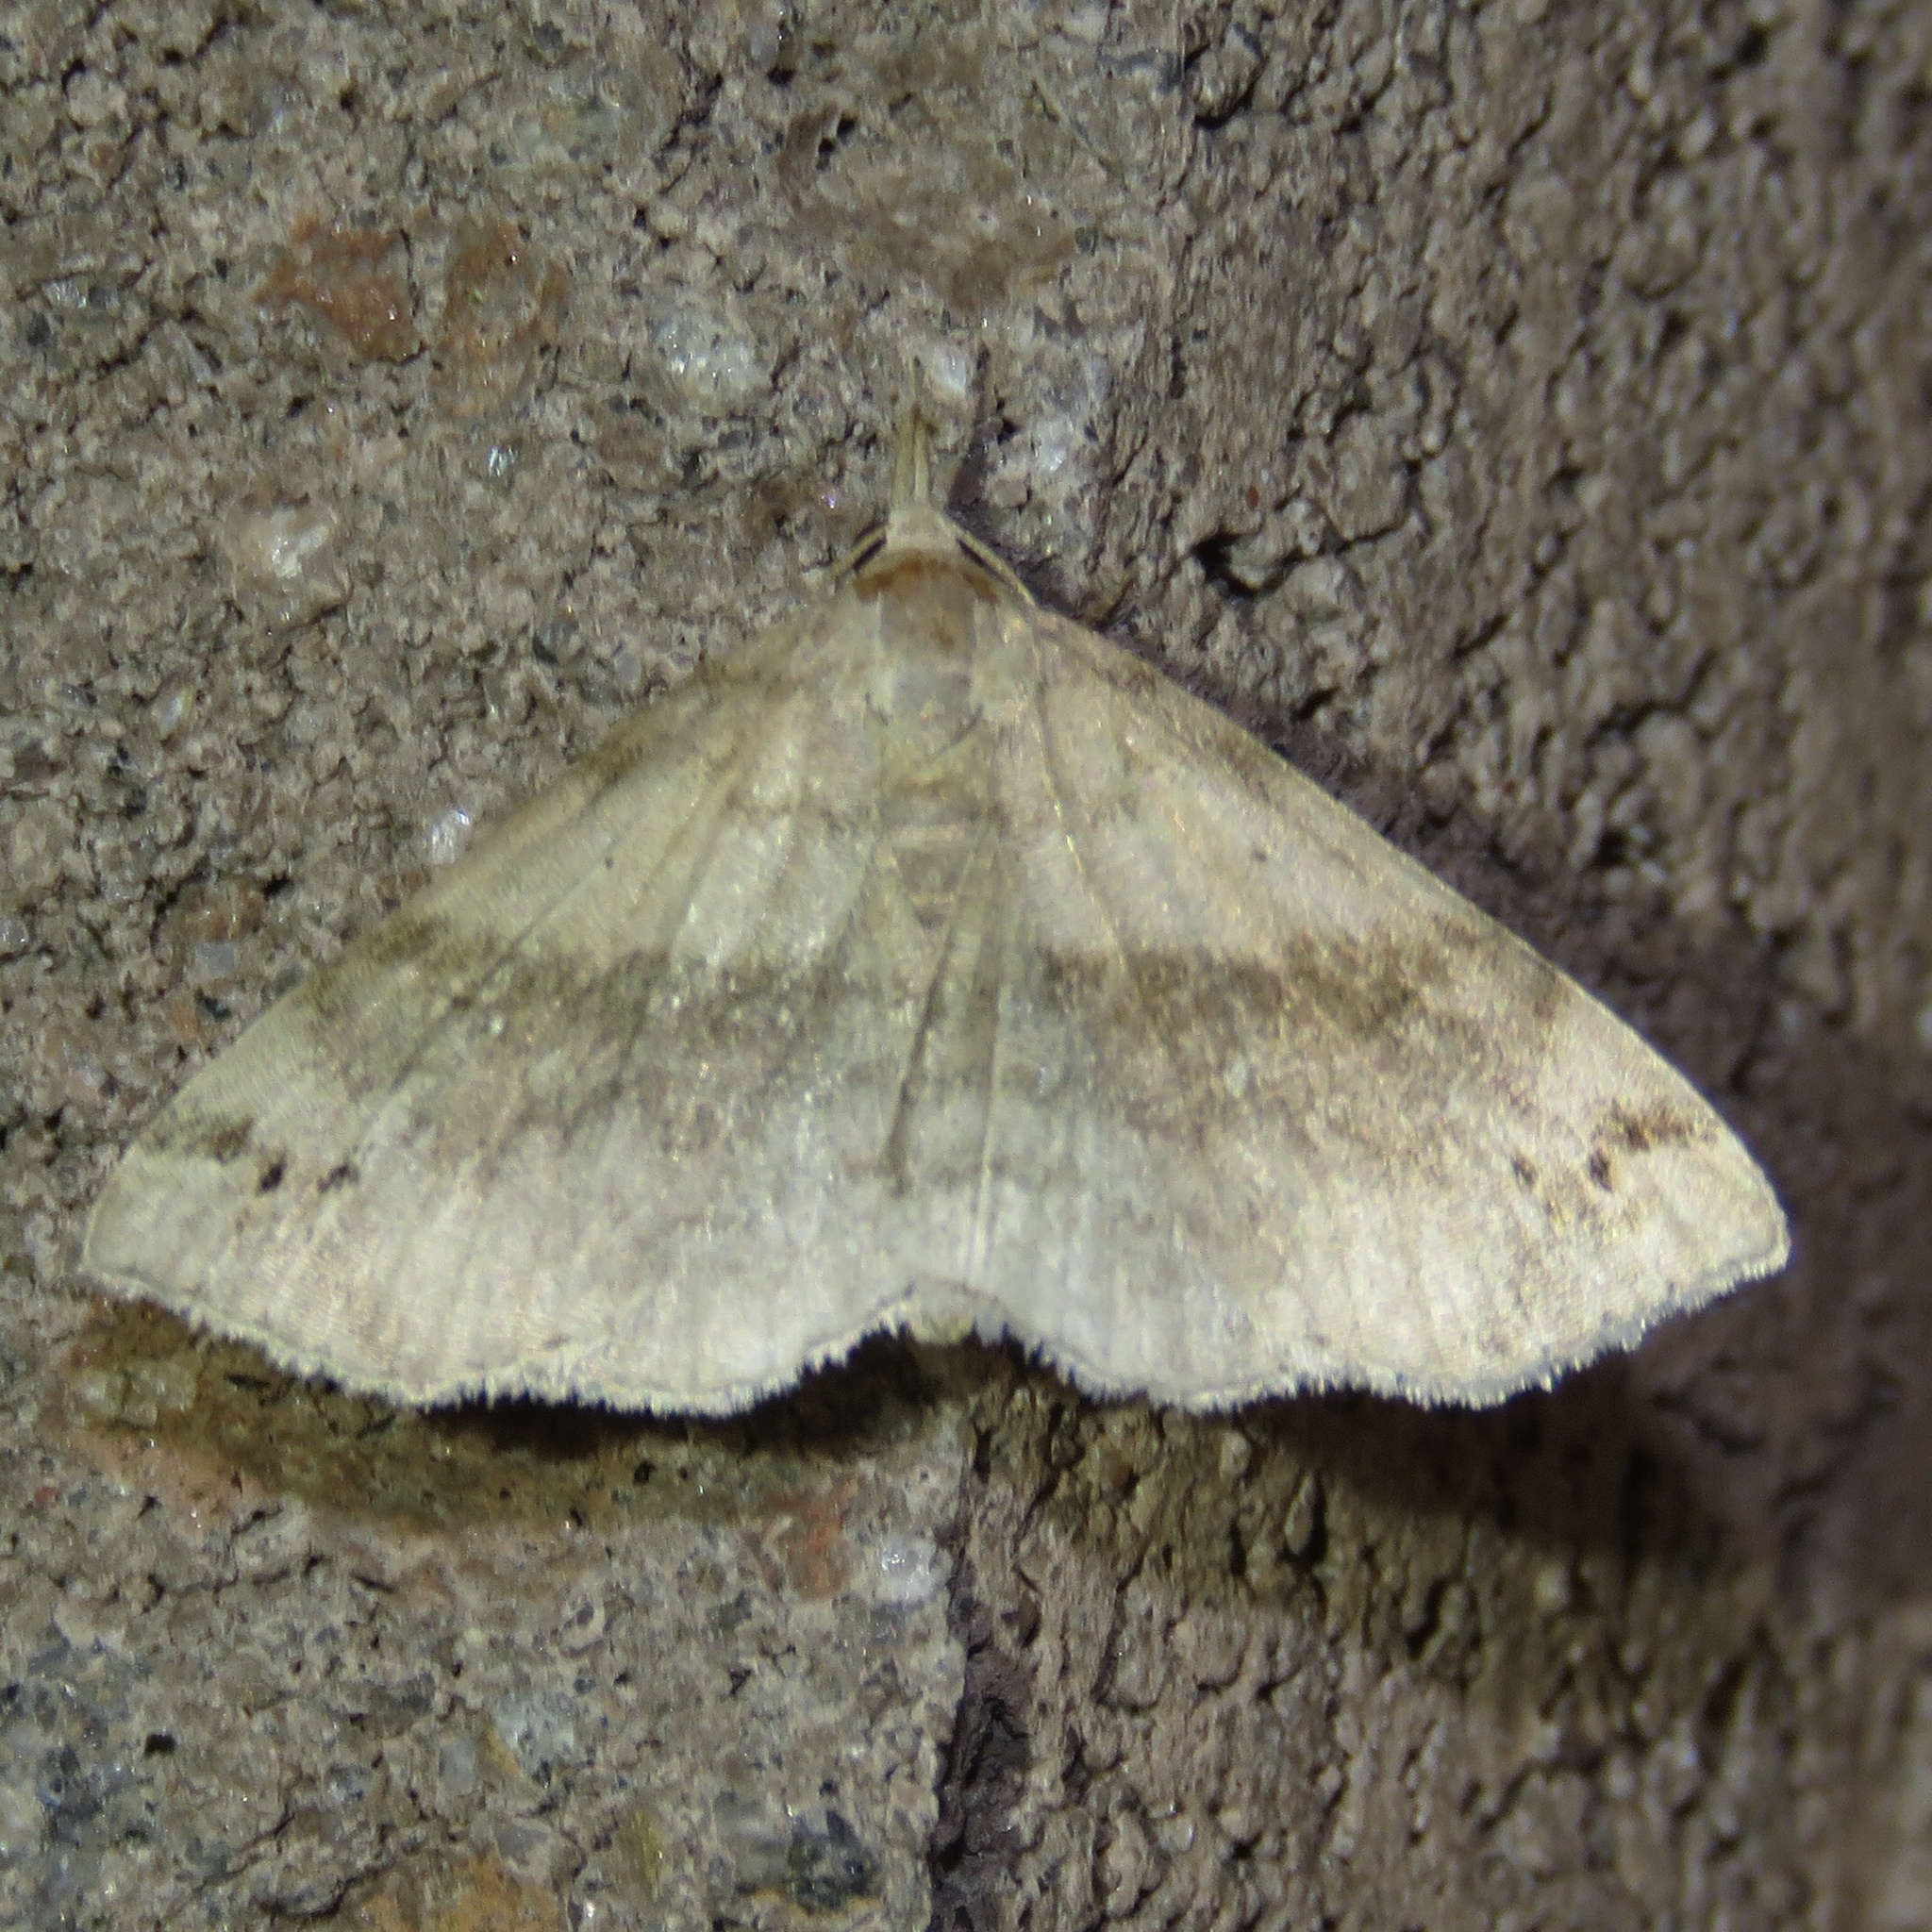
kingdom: Animalia
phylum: Arthropoda
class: Insecta
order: Lepidoptera
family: Erebidae
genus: Spargaloma
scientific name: Spargaloma sexpunctata
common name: Six-spotted gray
